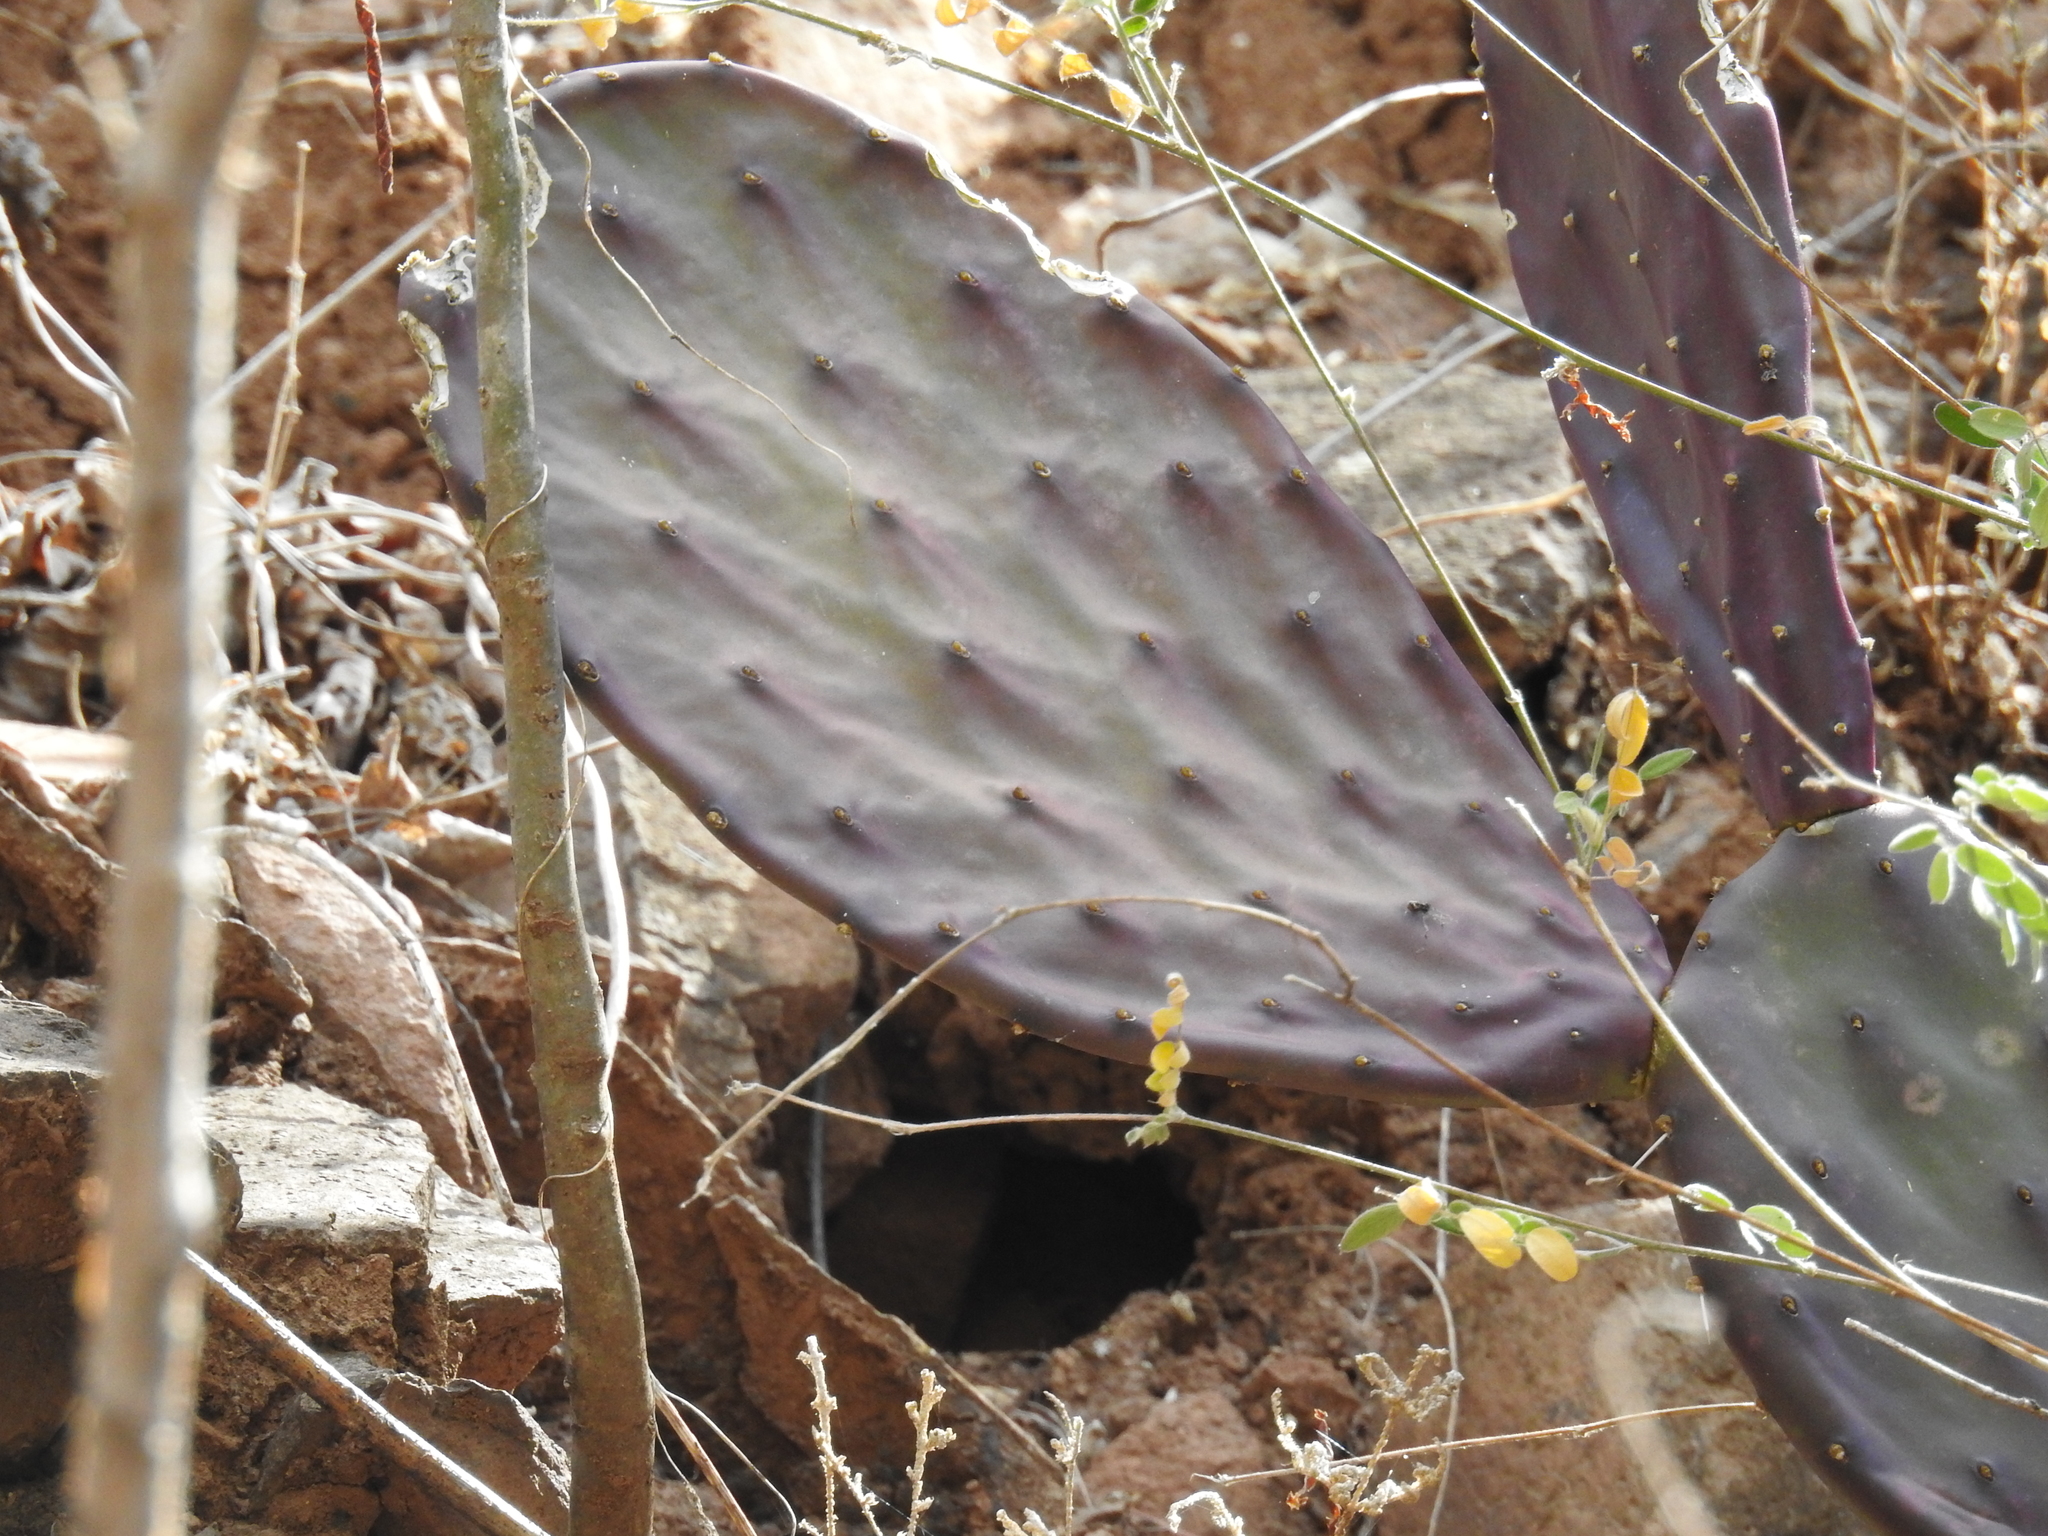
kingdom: Plantae
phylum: Tracheophyta
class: Magnoliopsida
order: Caryophyllales
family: Cactaceae
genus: Opuntia
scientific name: Opuntia macrocentra
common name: Purple prickly-pear
